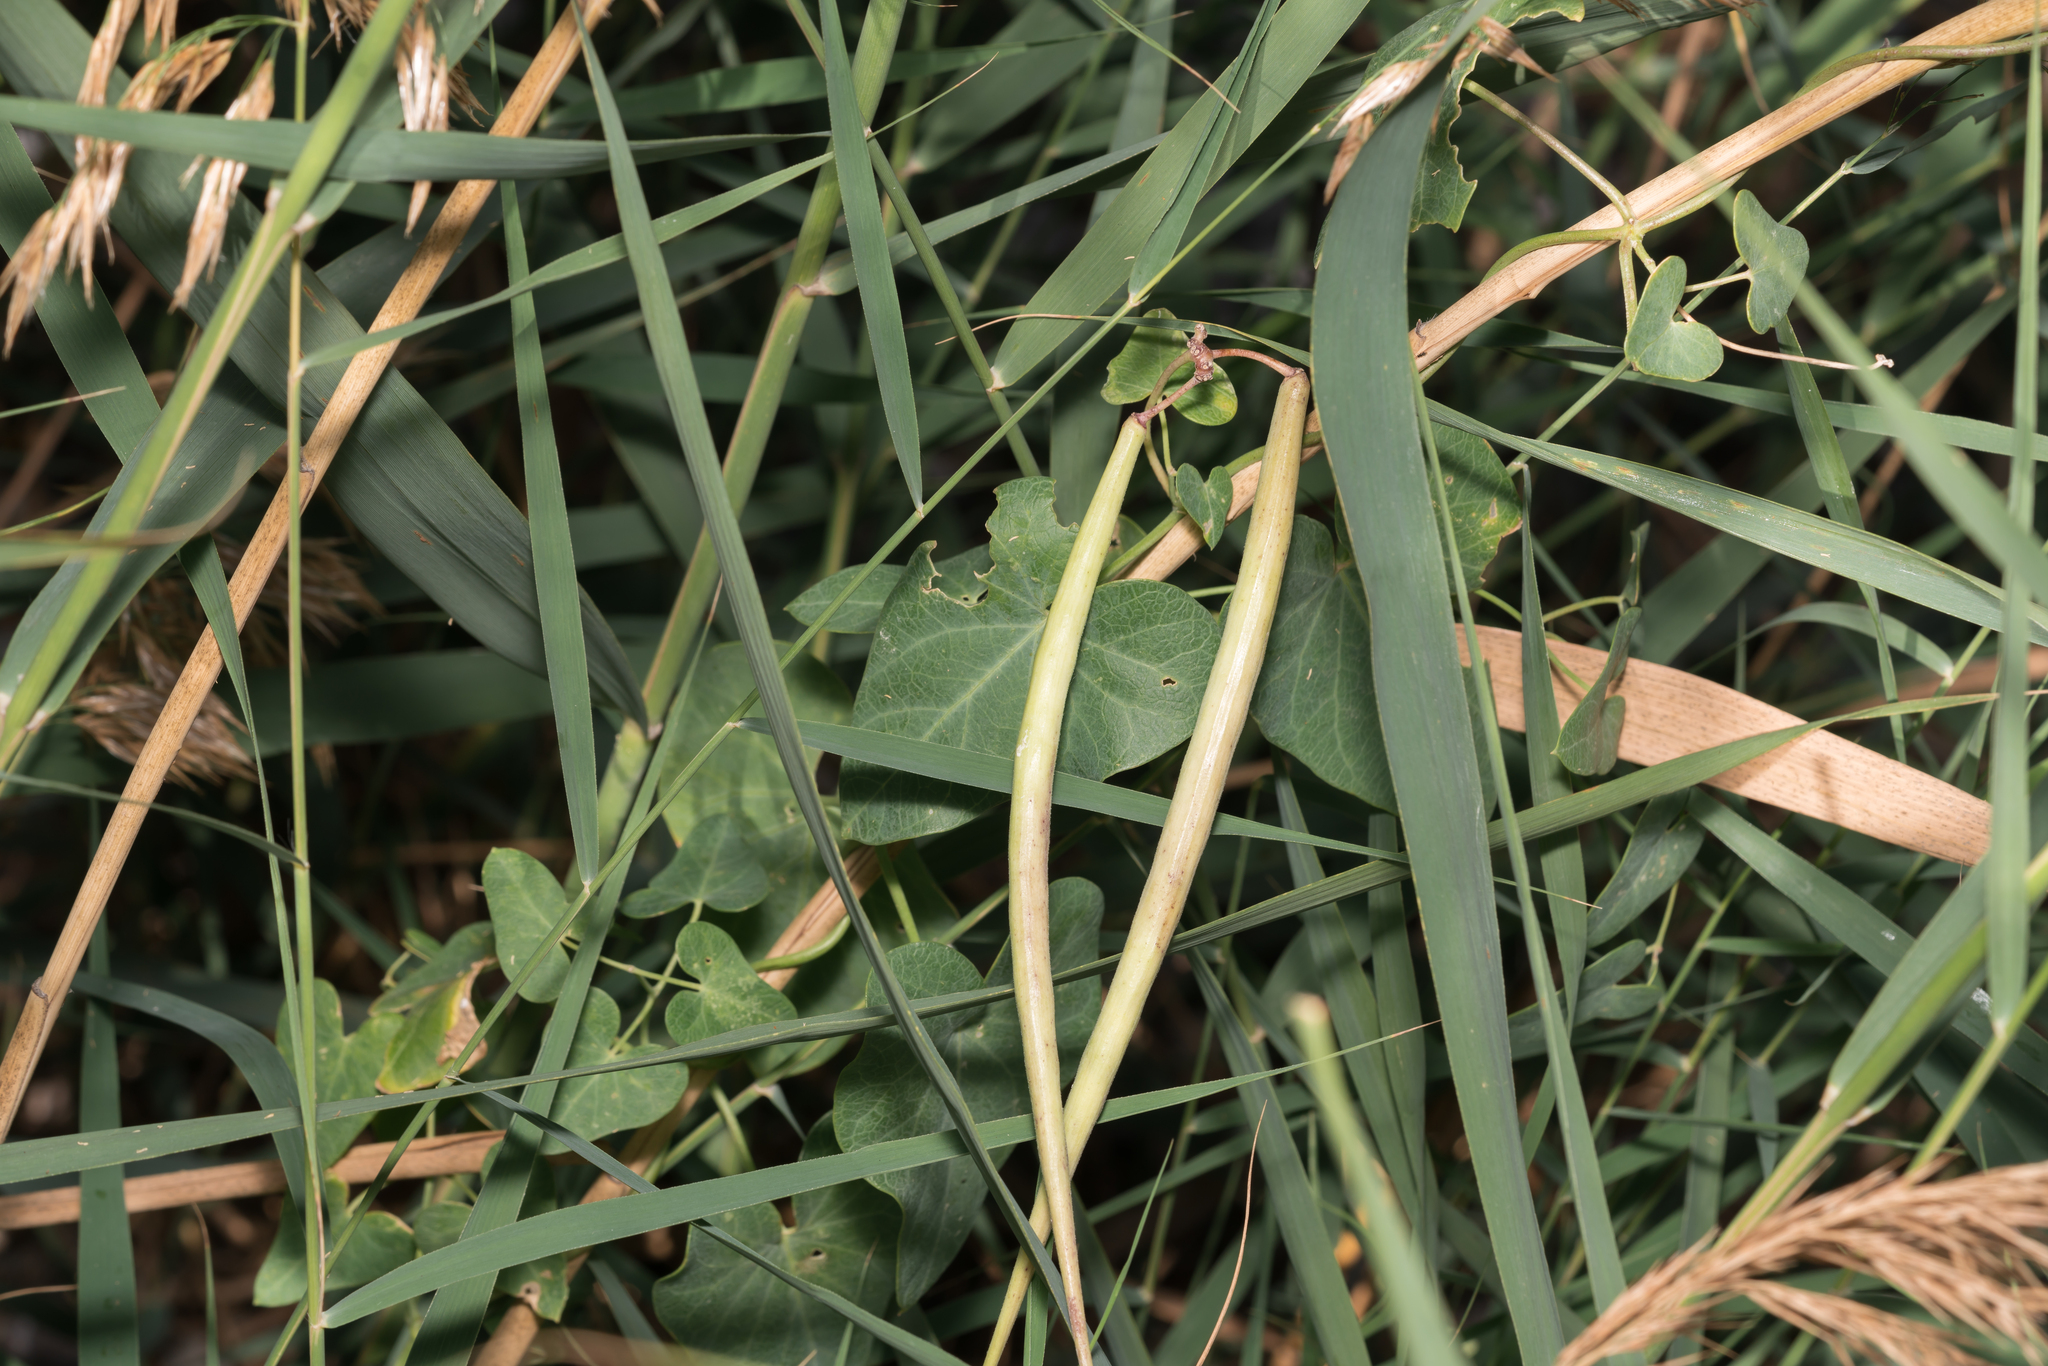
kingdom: Plantae
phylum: Tracheophyta
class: Magnoliopsida
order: Gentianales
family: Apocynaceae
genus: Cynanchum
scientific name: Cynanchum acutum
